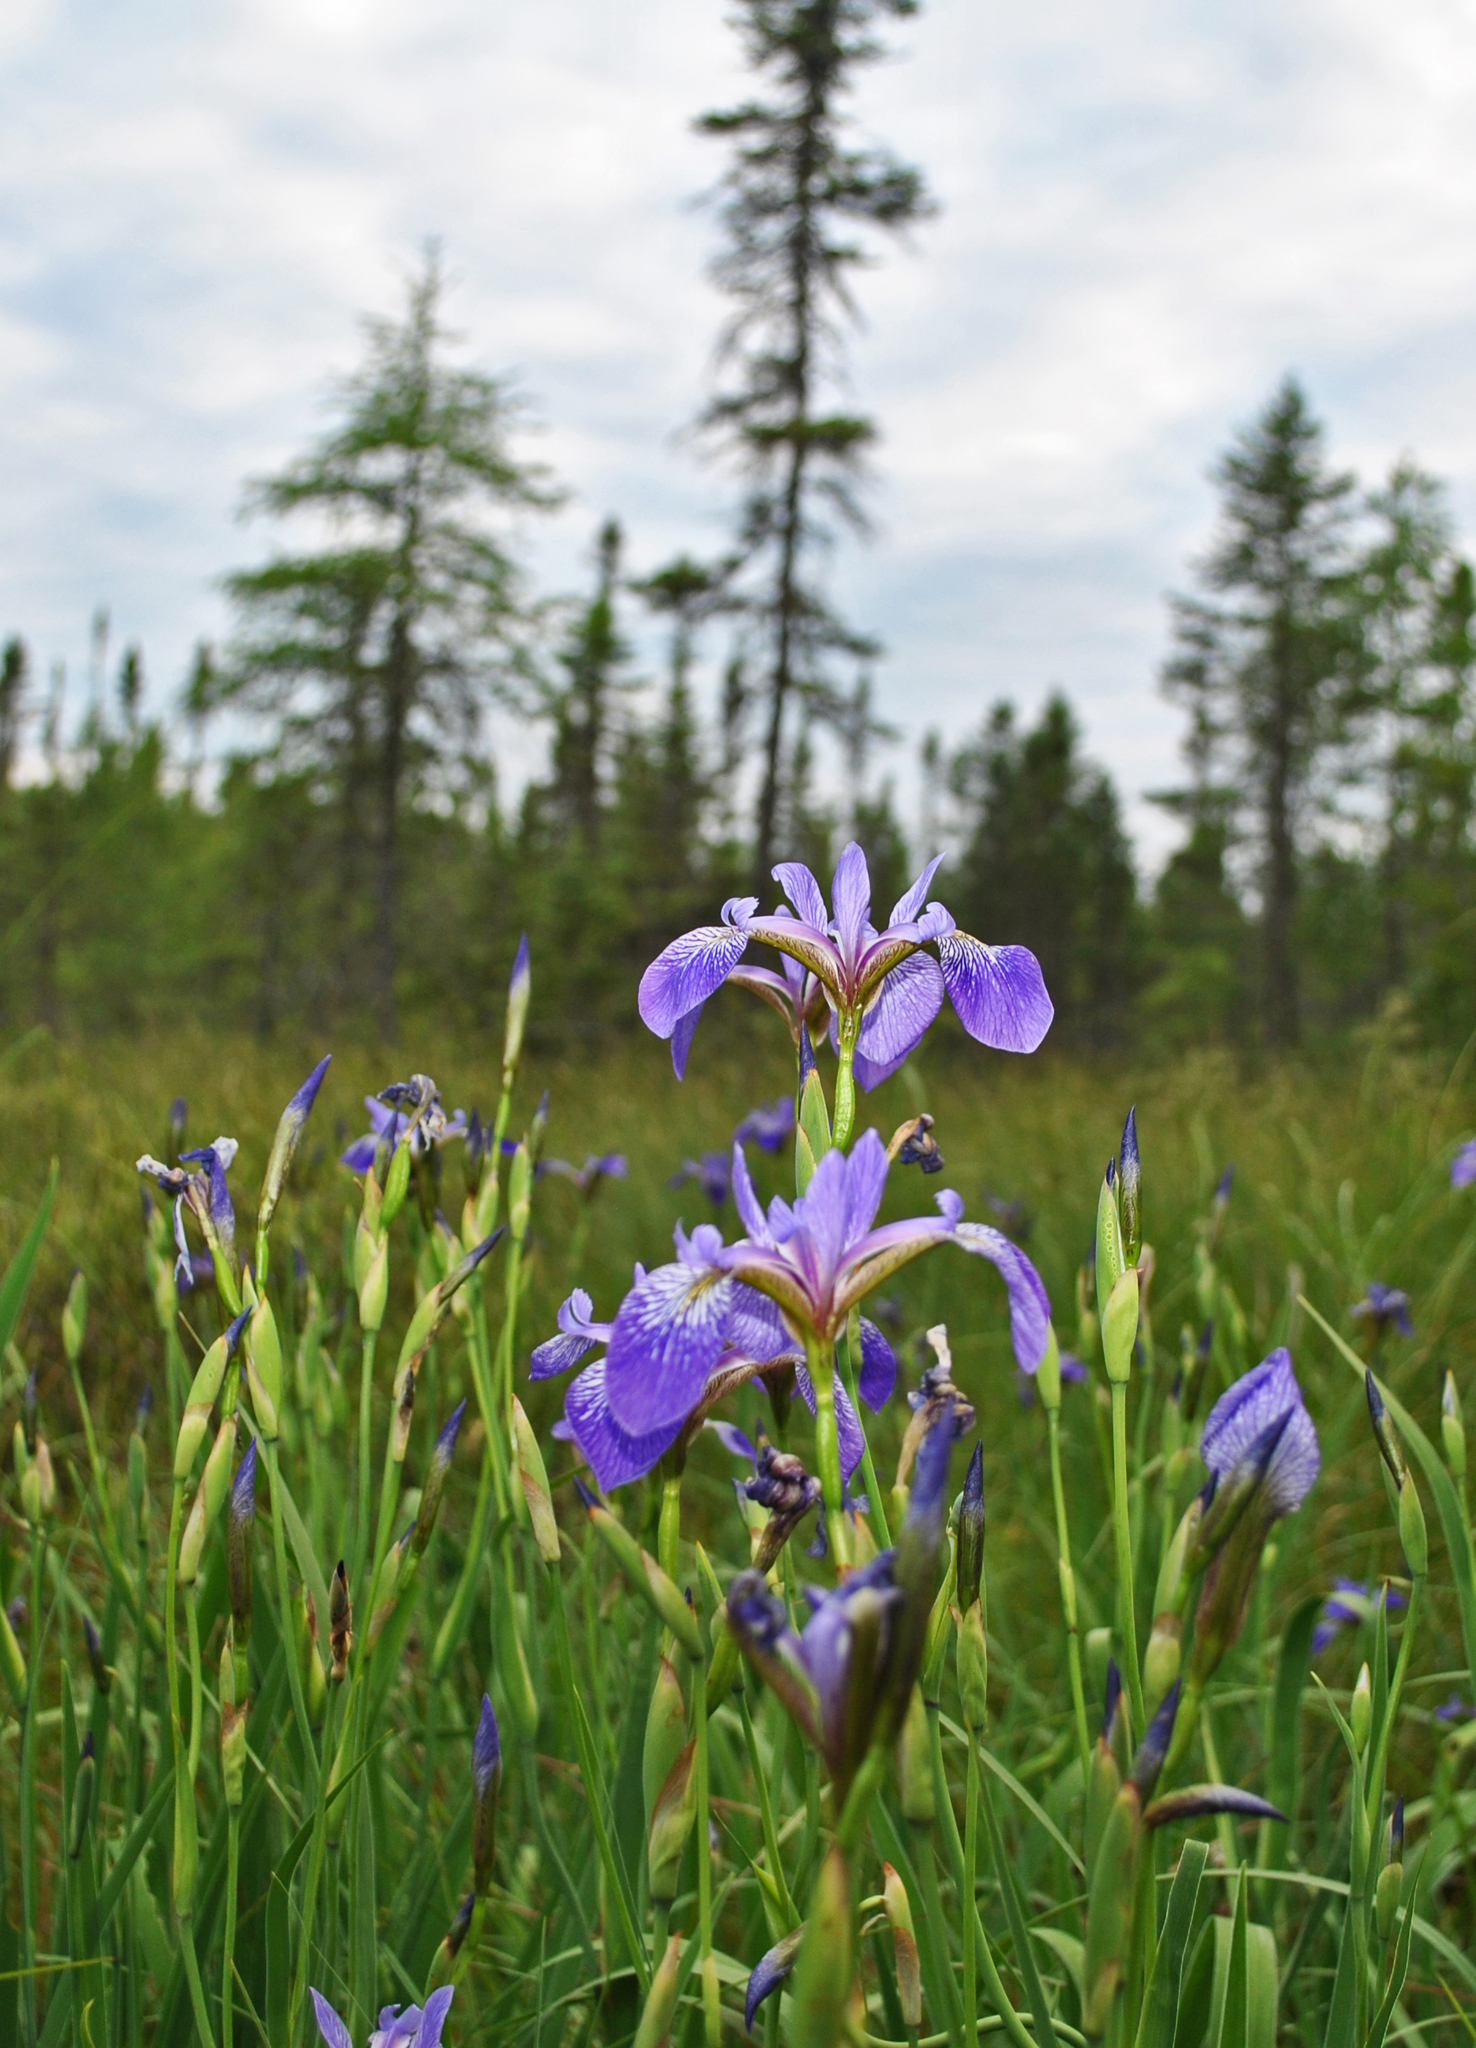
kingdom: Plantae
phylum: Tracheophyta
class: Liliopsida
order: Asparagales
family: Iridaceae
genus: Iris
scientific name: Iris versicolor
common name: Purple iris
